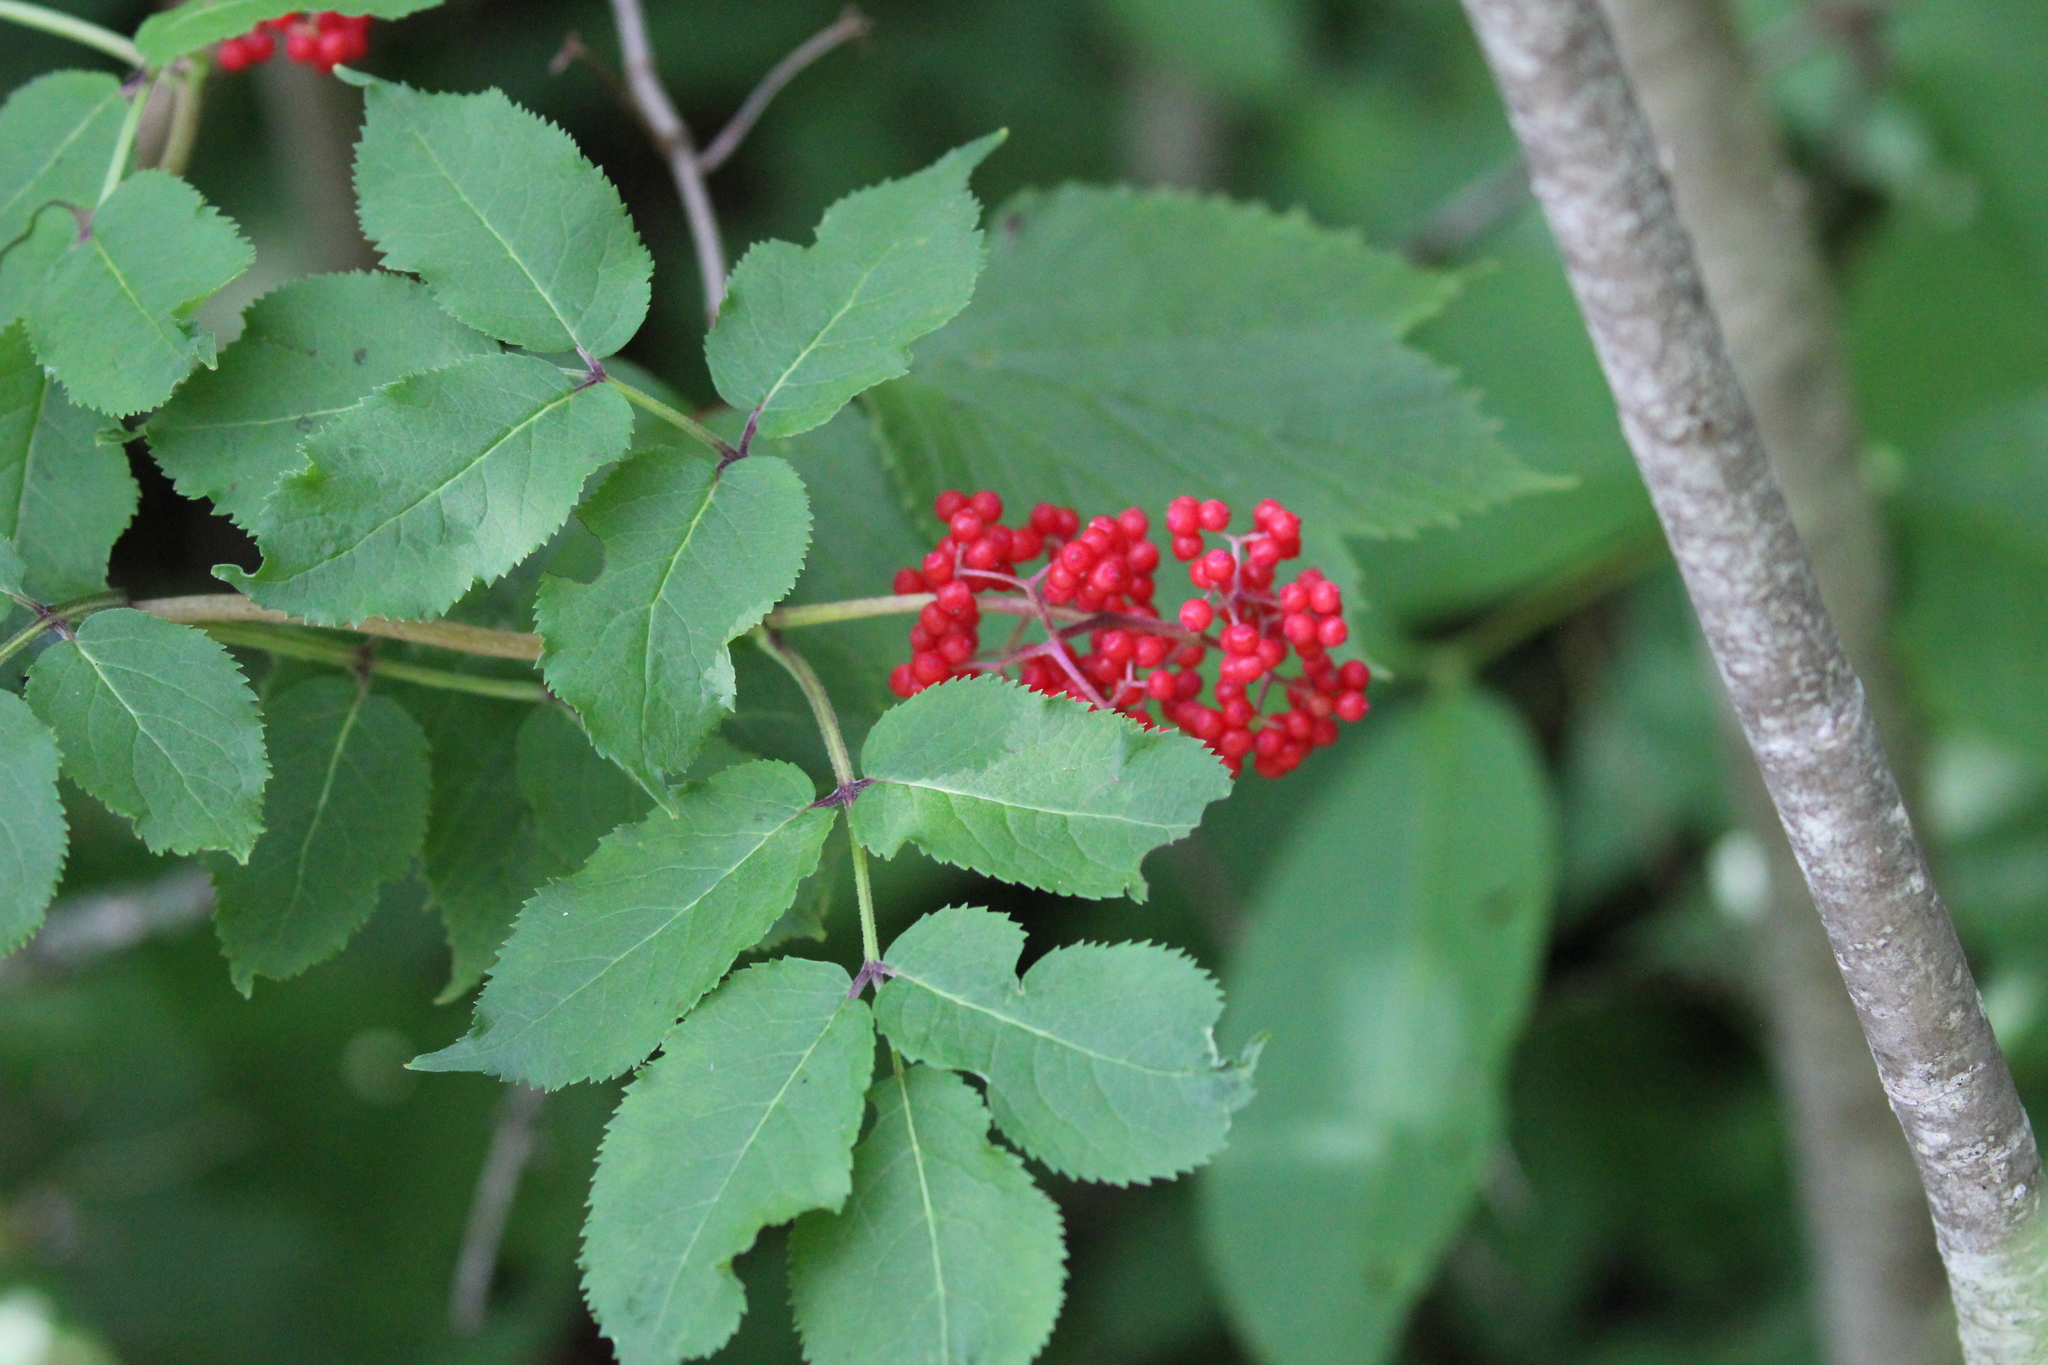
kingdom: Plantae
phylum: Tracheophyta
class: Magnoliopsida
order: Dipsacales
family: Viburnaceae
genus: Sambucus
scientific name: Sambucus racemosa
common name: Red-berried elder
